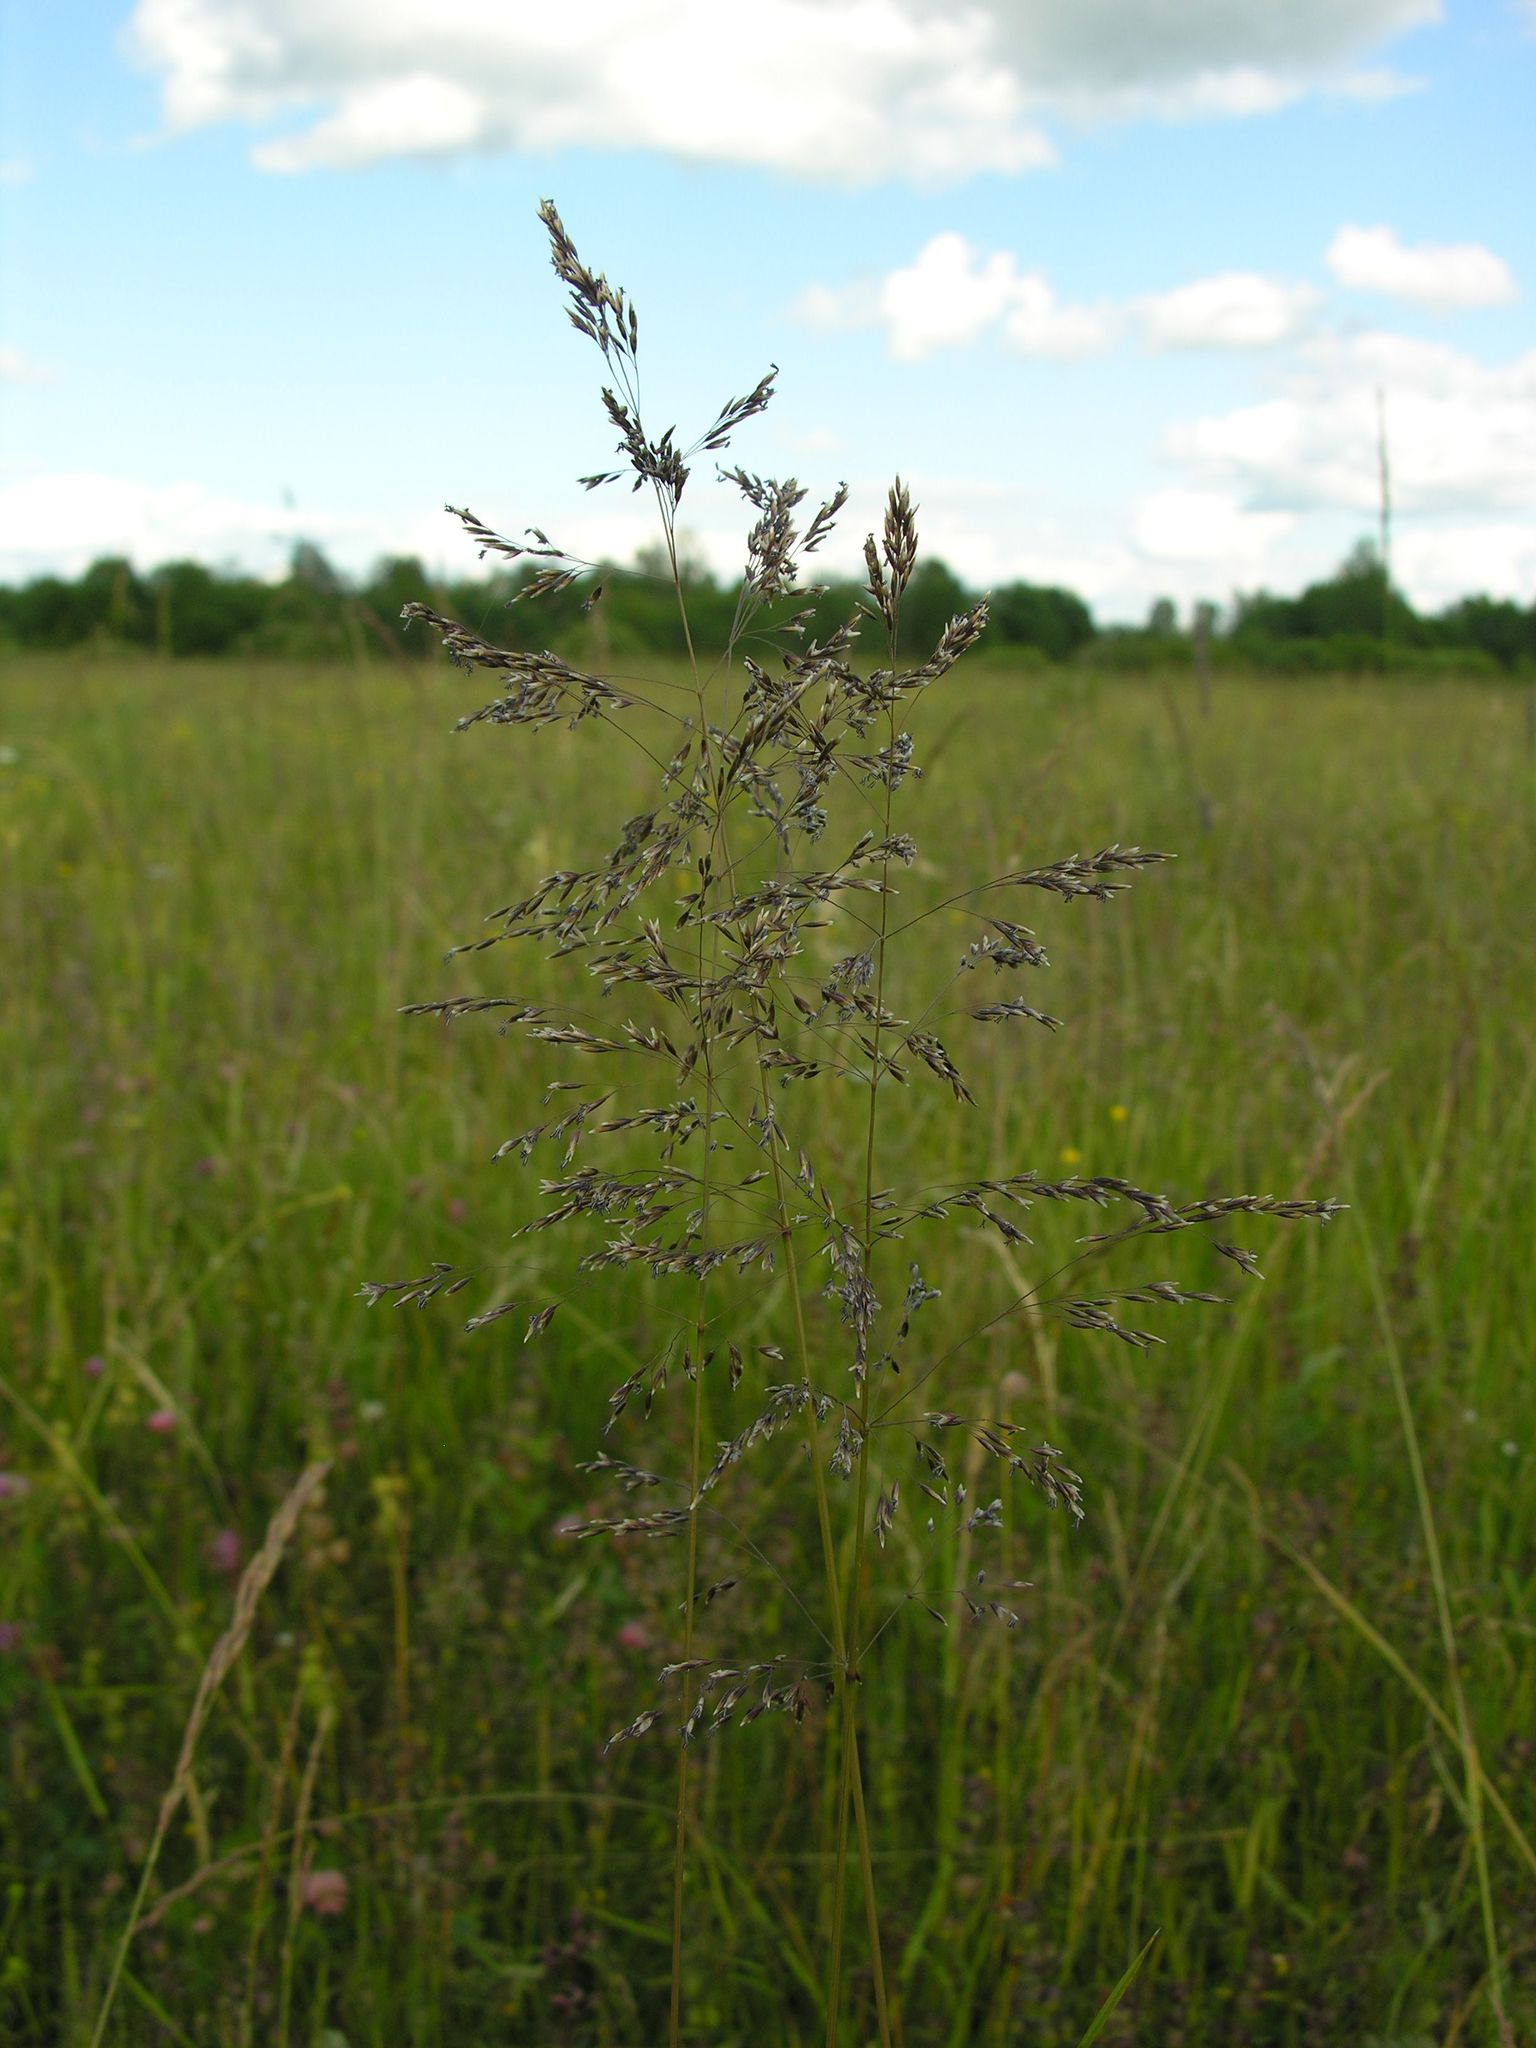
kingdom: Plantae
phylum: Tracheophyta
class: Liliopsida
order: Poales
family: Poaceae
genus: Deschampsia
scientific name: Deschampsia cespitosa
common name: Tufted hair-grass
